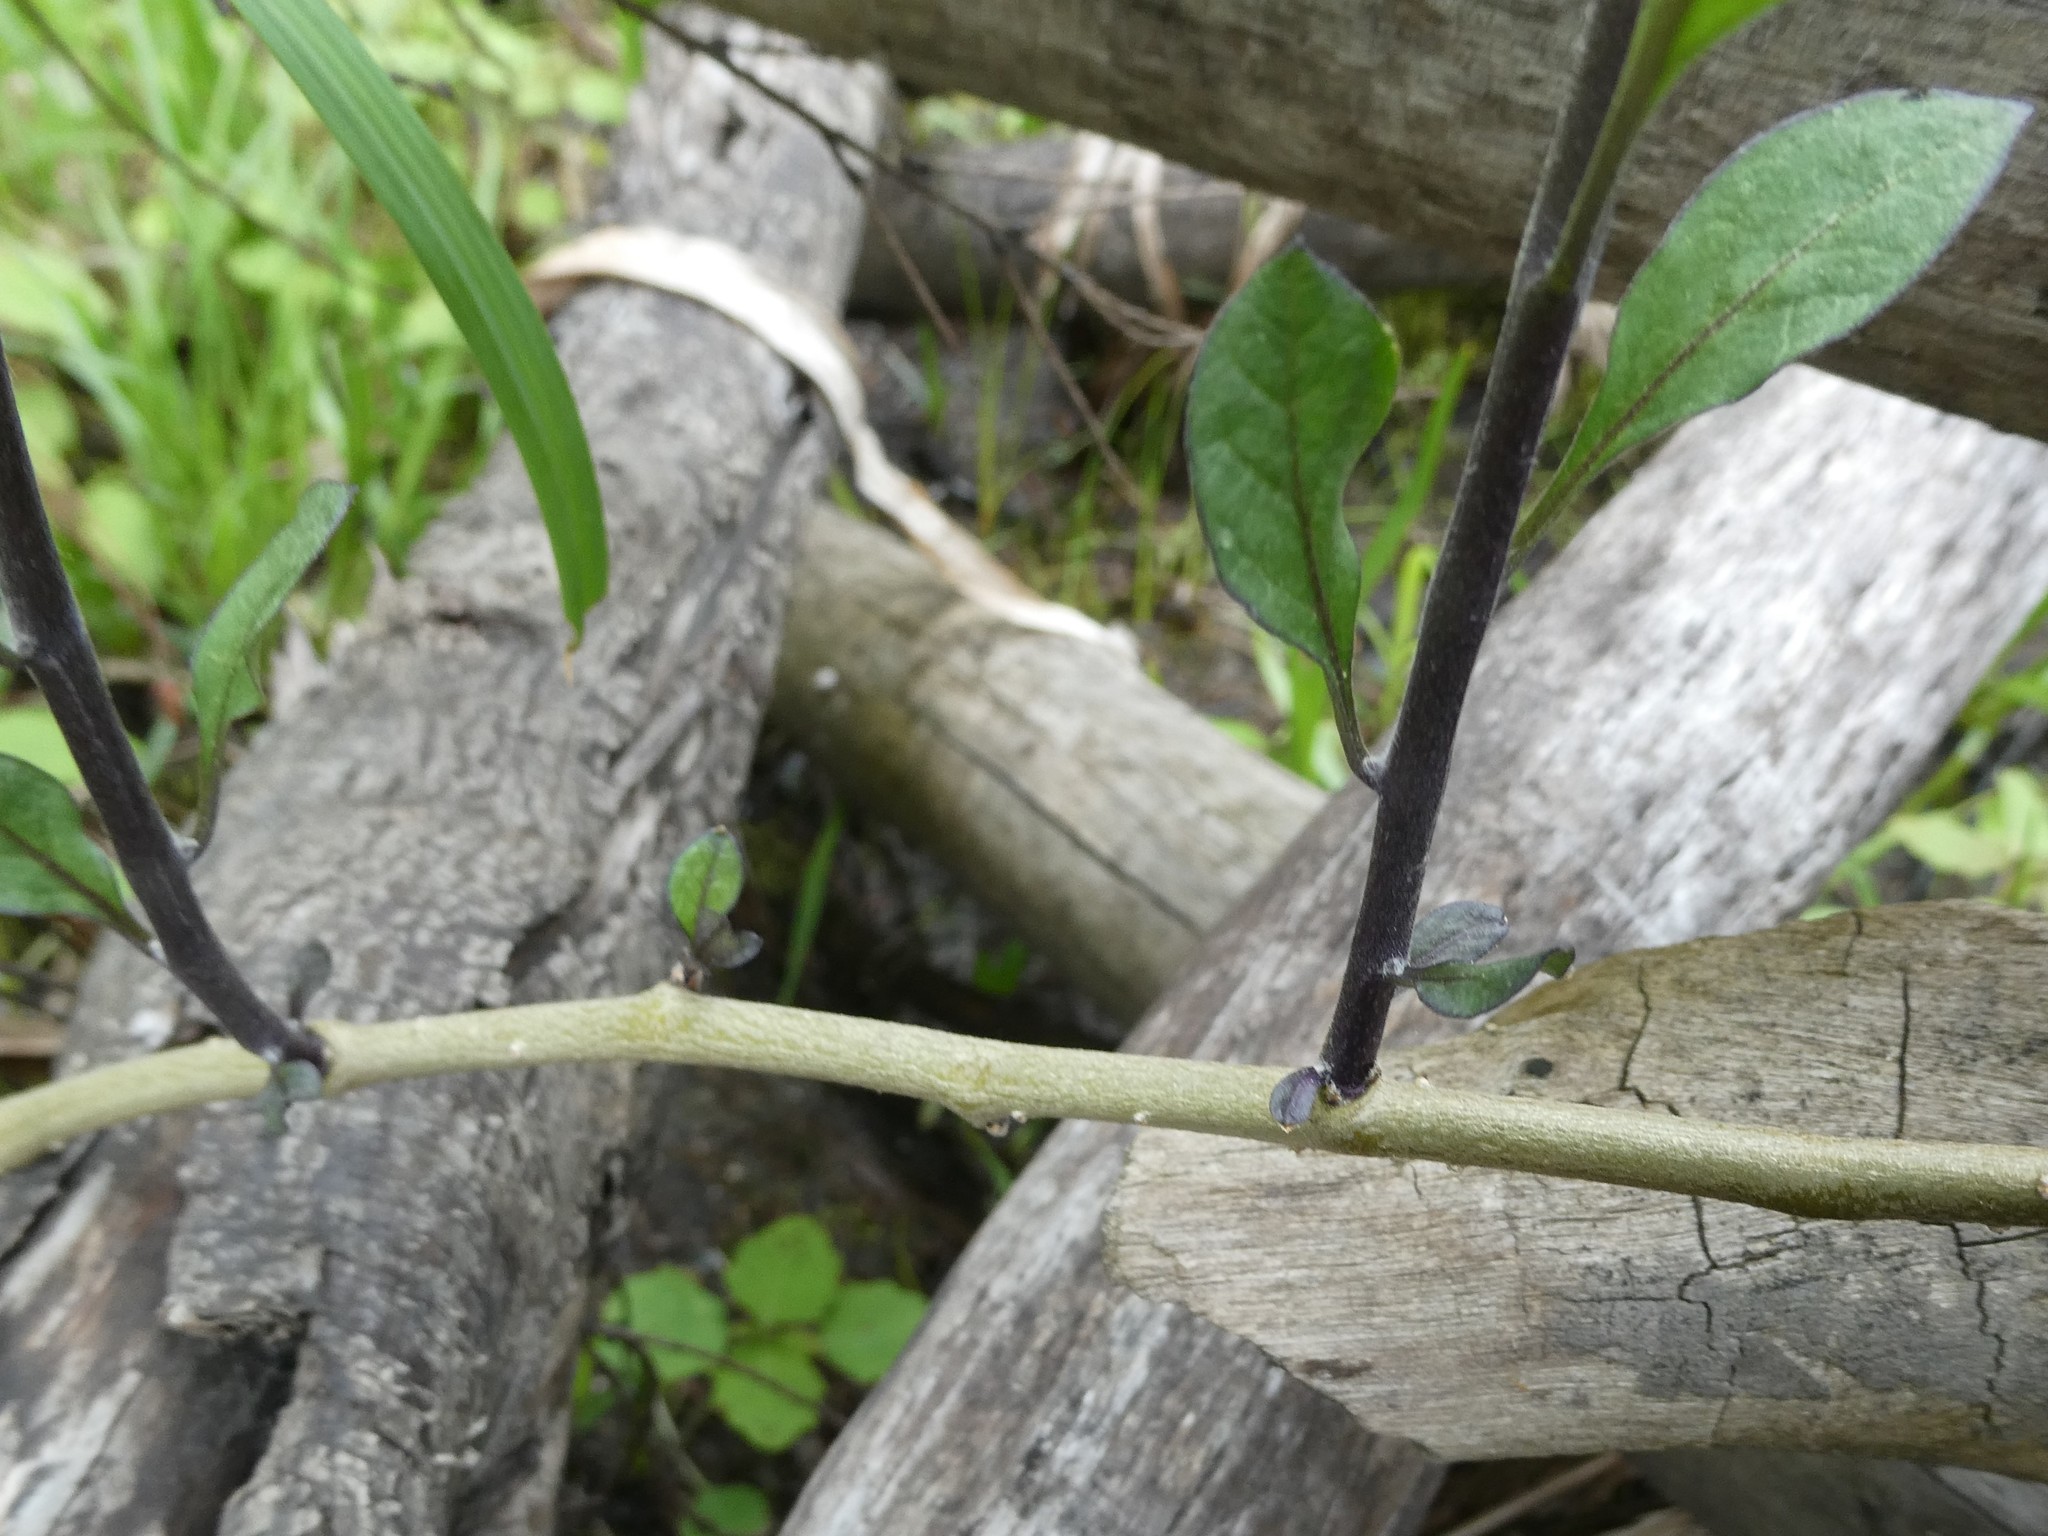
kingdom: Plantae
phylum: Tracheophyta
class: Magnoliopsida
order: Solanales
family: Solanaceae
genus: Solanum
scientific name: Solanum dulcamara
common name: Climbing nightshade
